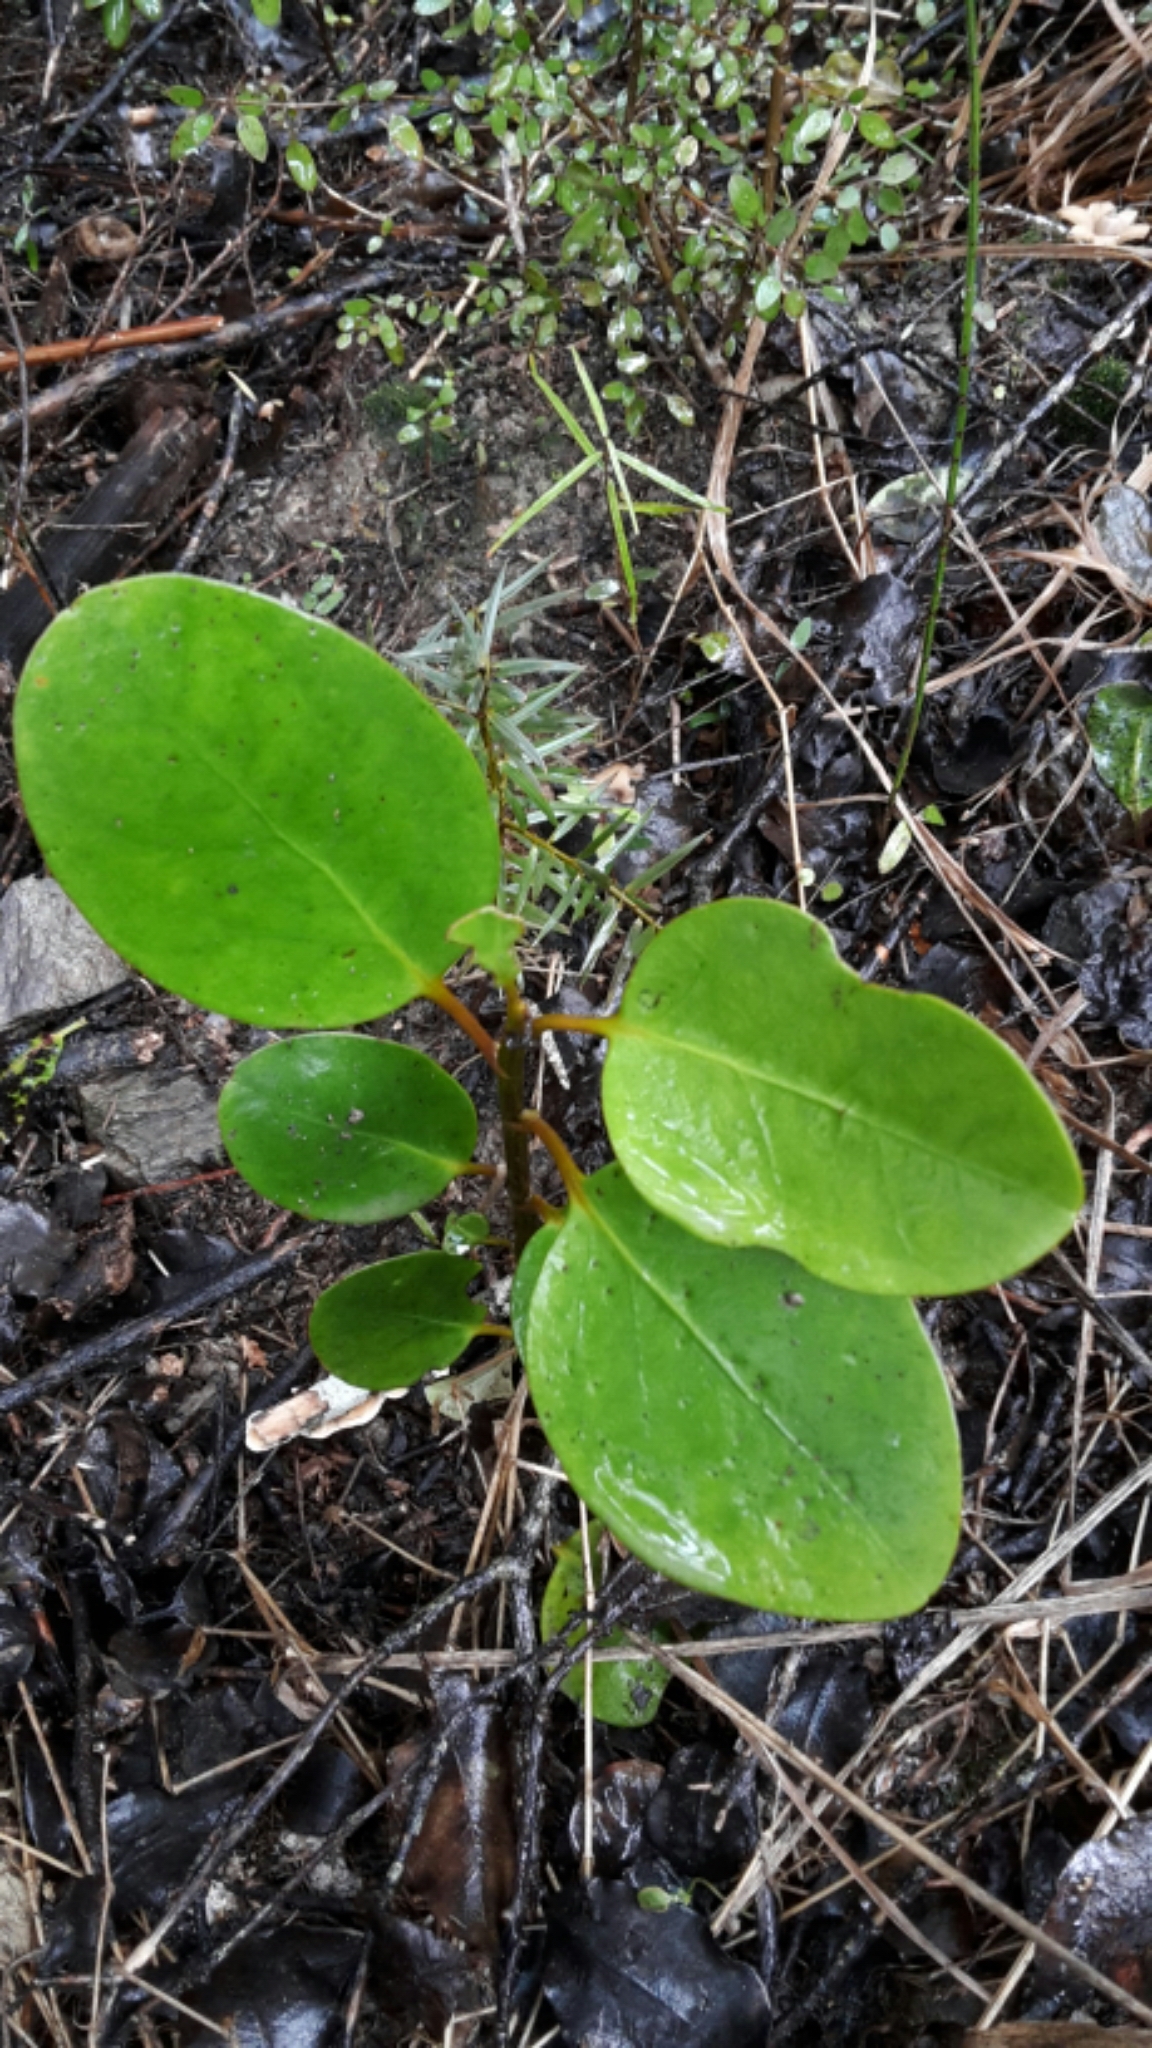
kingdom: Plantae
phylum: Tracheophyta
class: Magnoliopsida
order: Apiales
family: Griseliniaceae
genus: Griselinia
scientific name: Griselinia littoralis
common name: New zealand broadleaf
